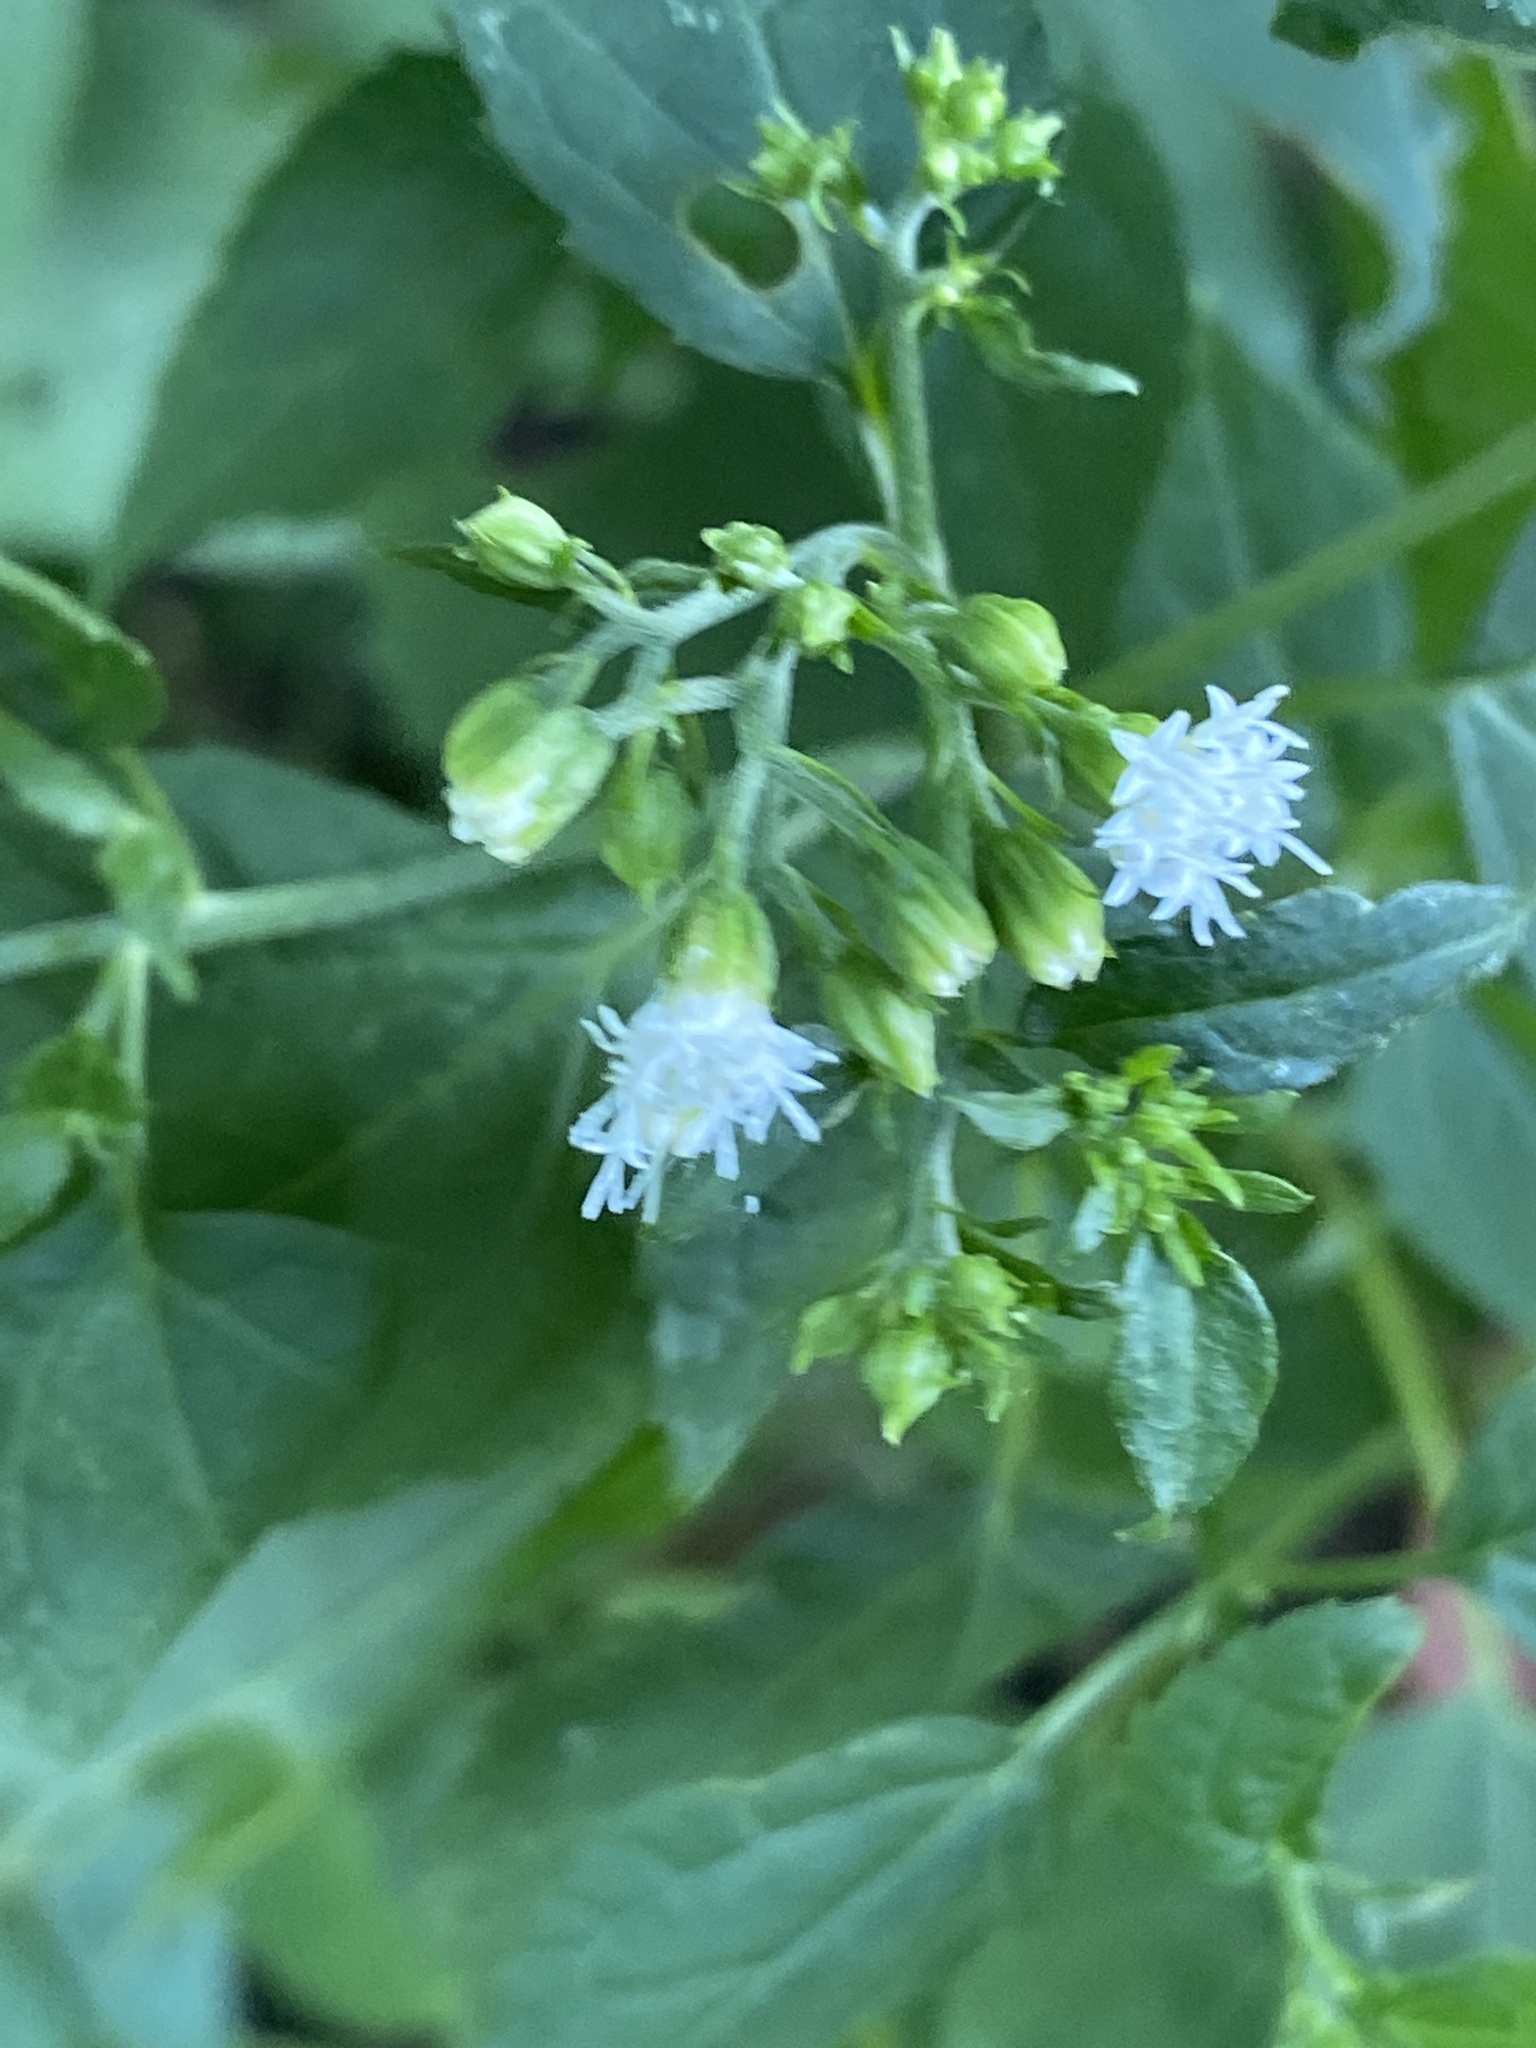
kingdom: Plantae
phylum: Tracheophyta
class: Magnoliopsida
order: Asterales
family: Asteraceae
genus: Ageratina
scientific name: Ageratina altissima
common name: White snakeroot
